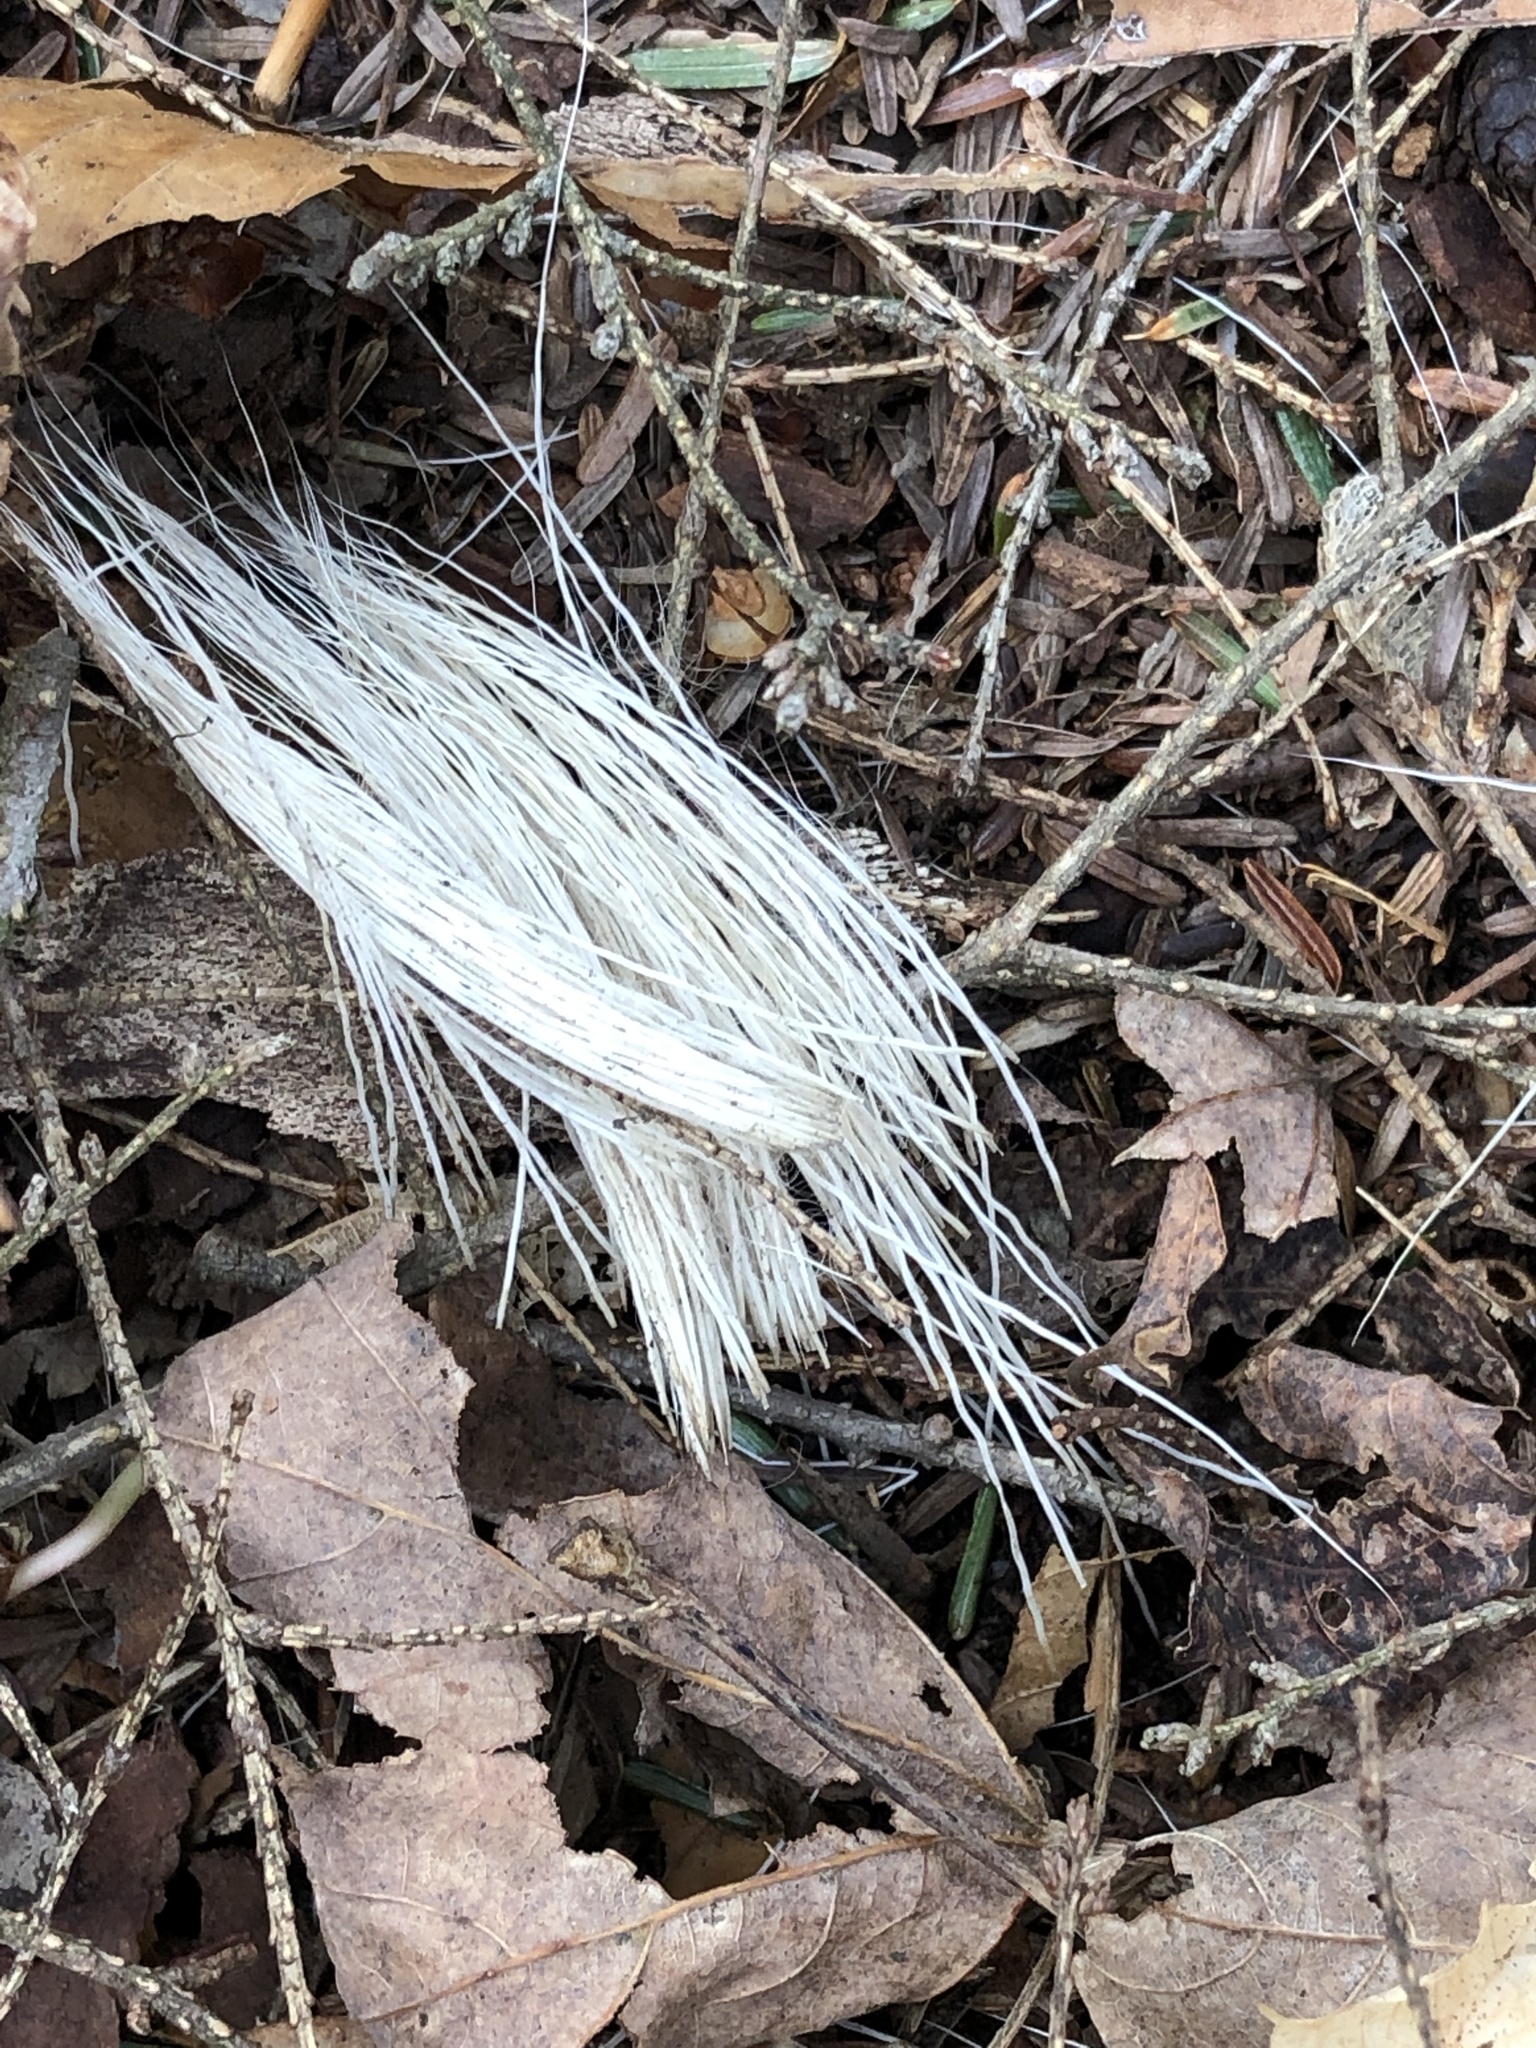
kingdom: Animalia
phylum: Chordata
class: Mammalia
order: Artiodactyla
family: Cervidae
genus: Odocoileus
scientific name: Odocoileus virginianus
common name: White-tailed deer
